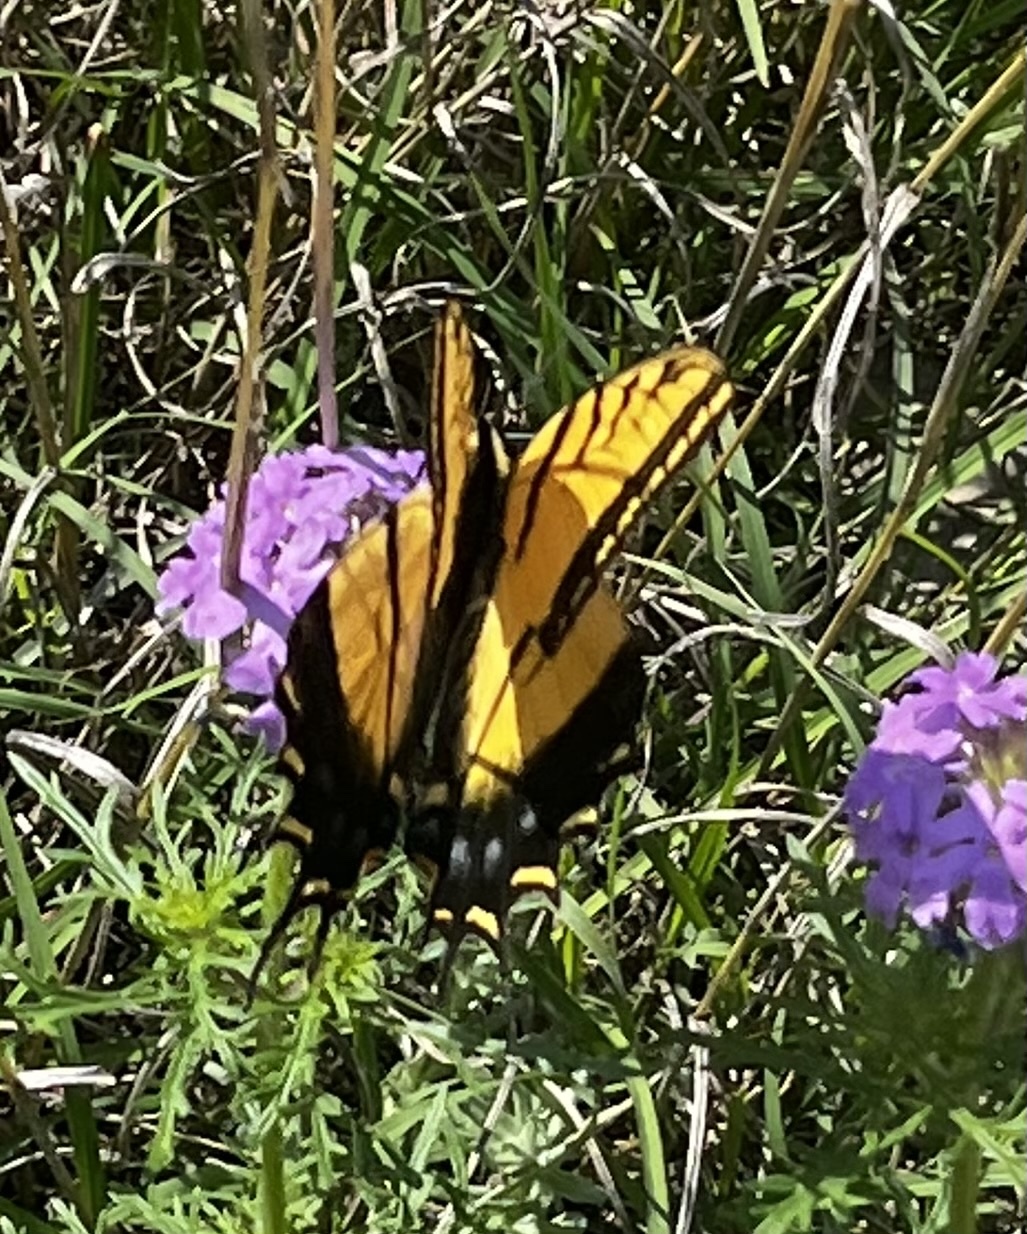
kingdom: Animalia
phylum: Arthropoda
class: Insecta
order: Lepidoptera
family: Papilionidae
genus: Papilio
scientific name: Papilio multicaudata
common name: Two-tailed tiger swallowtail
